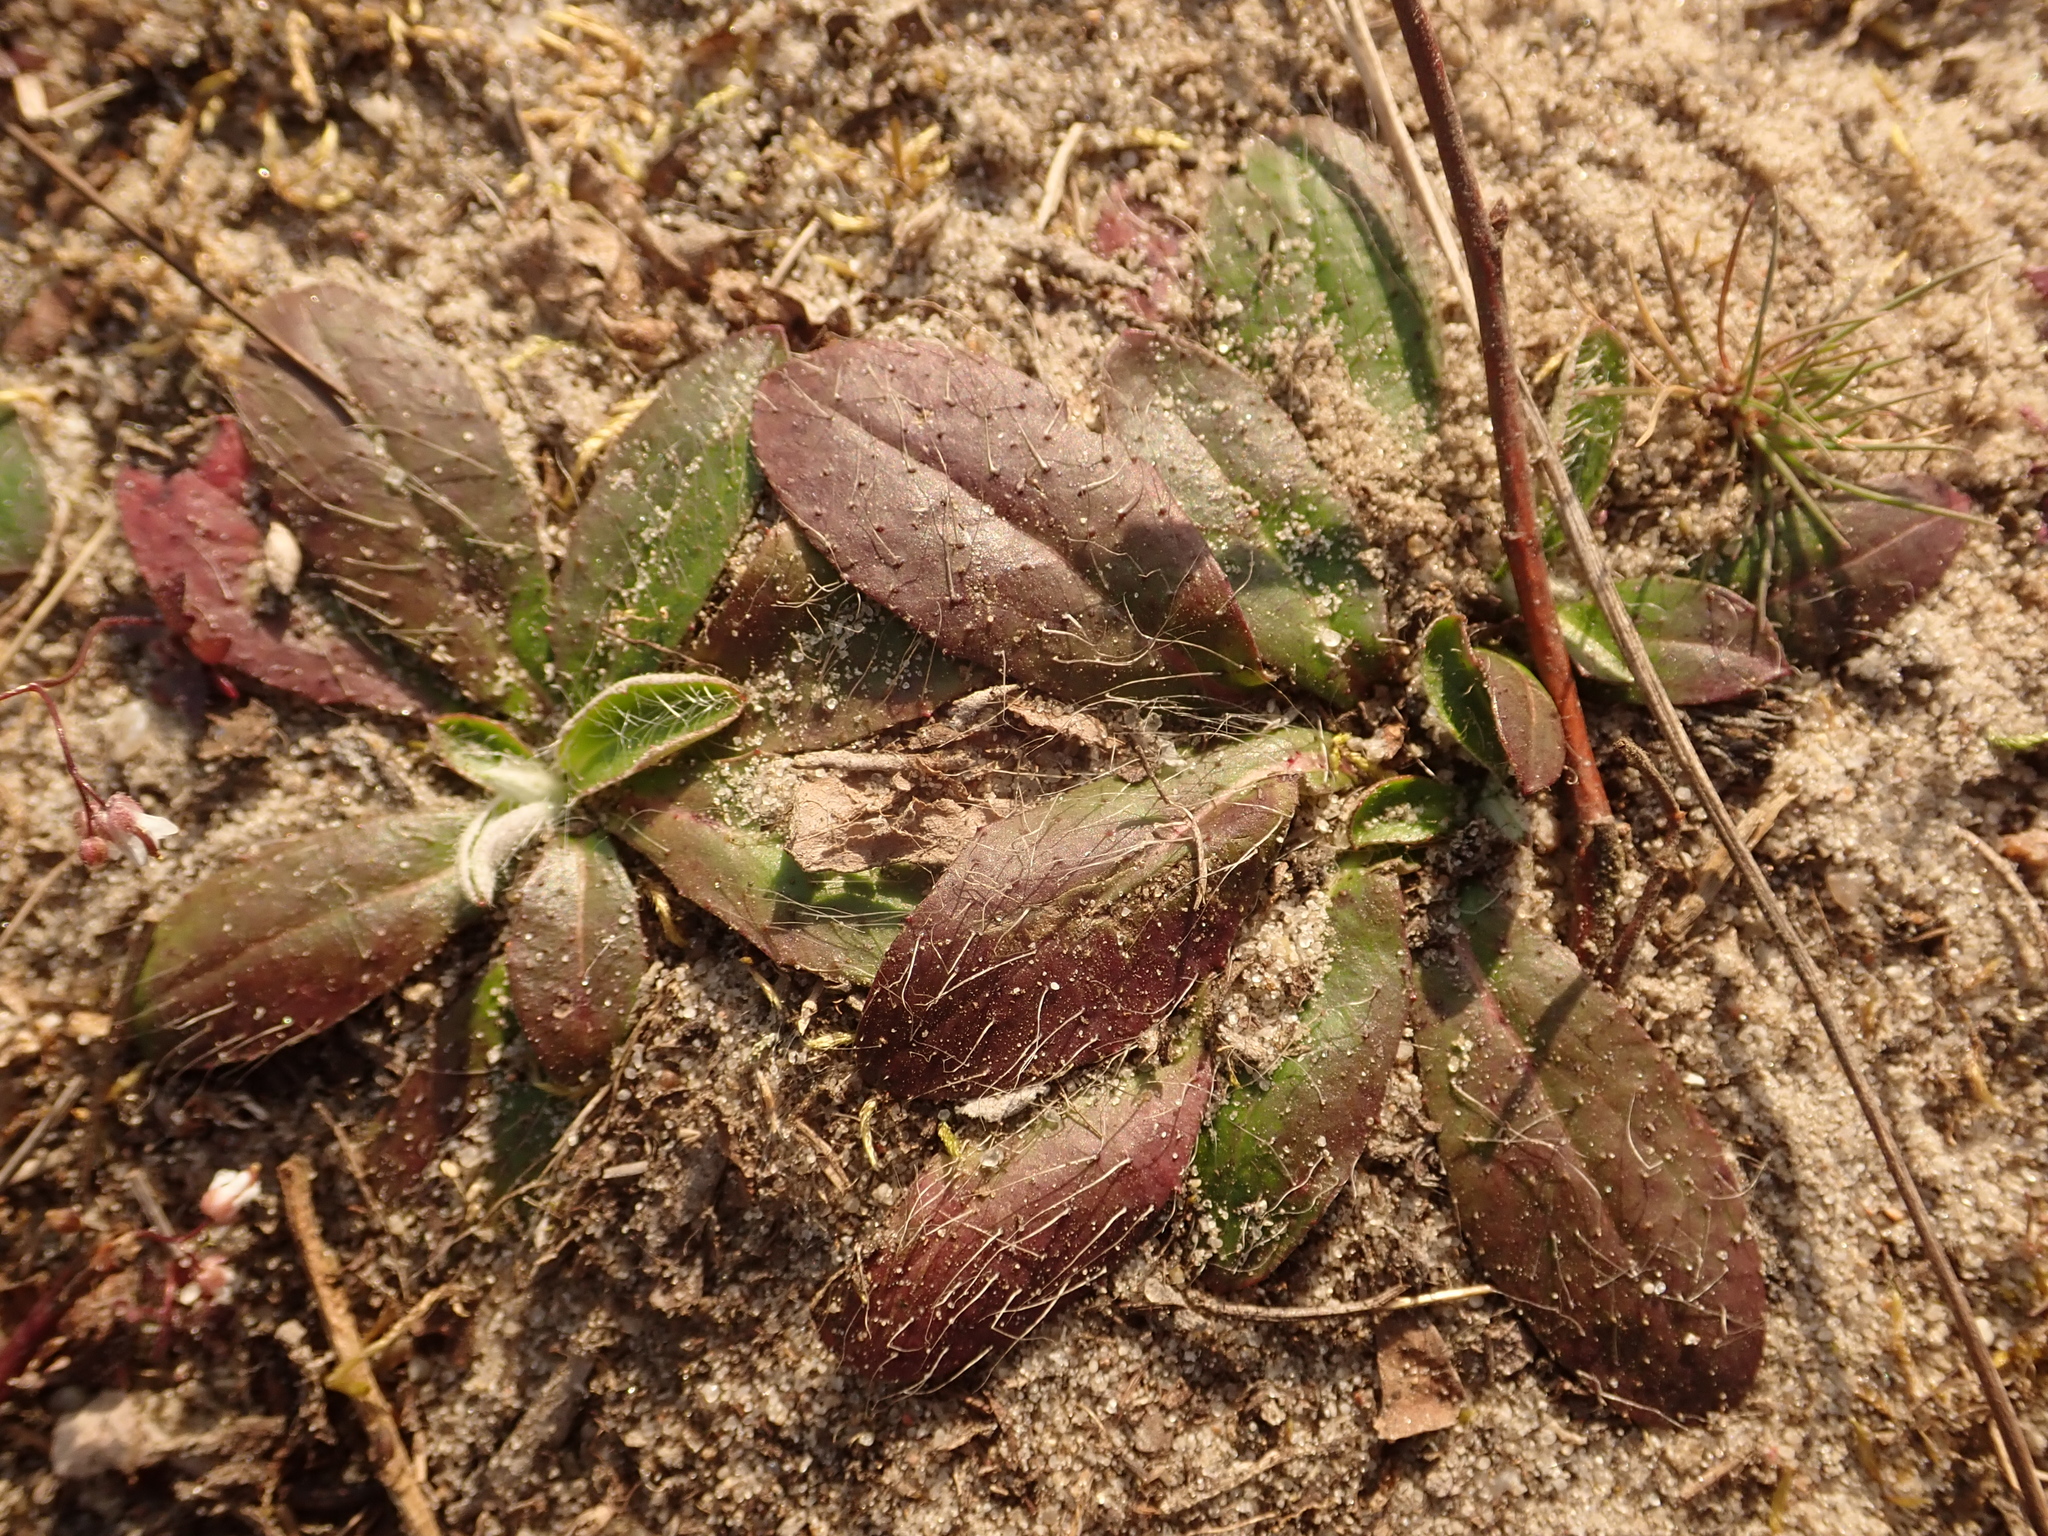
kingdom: Plantae
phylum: Tracheophyta
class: Magnoliopsida
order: Asterales
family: Asteraceae
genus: Pilosella
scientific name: Pilosella officinarum
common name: Mouse-ear hawkweed
